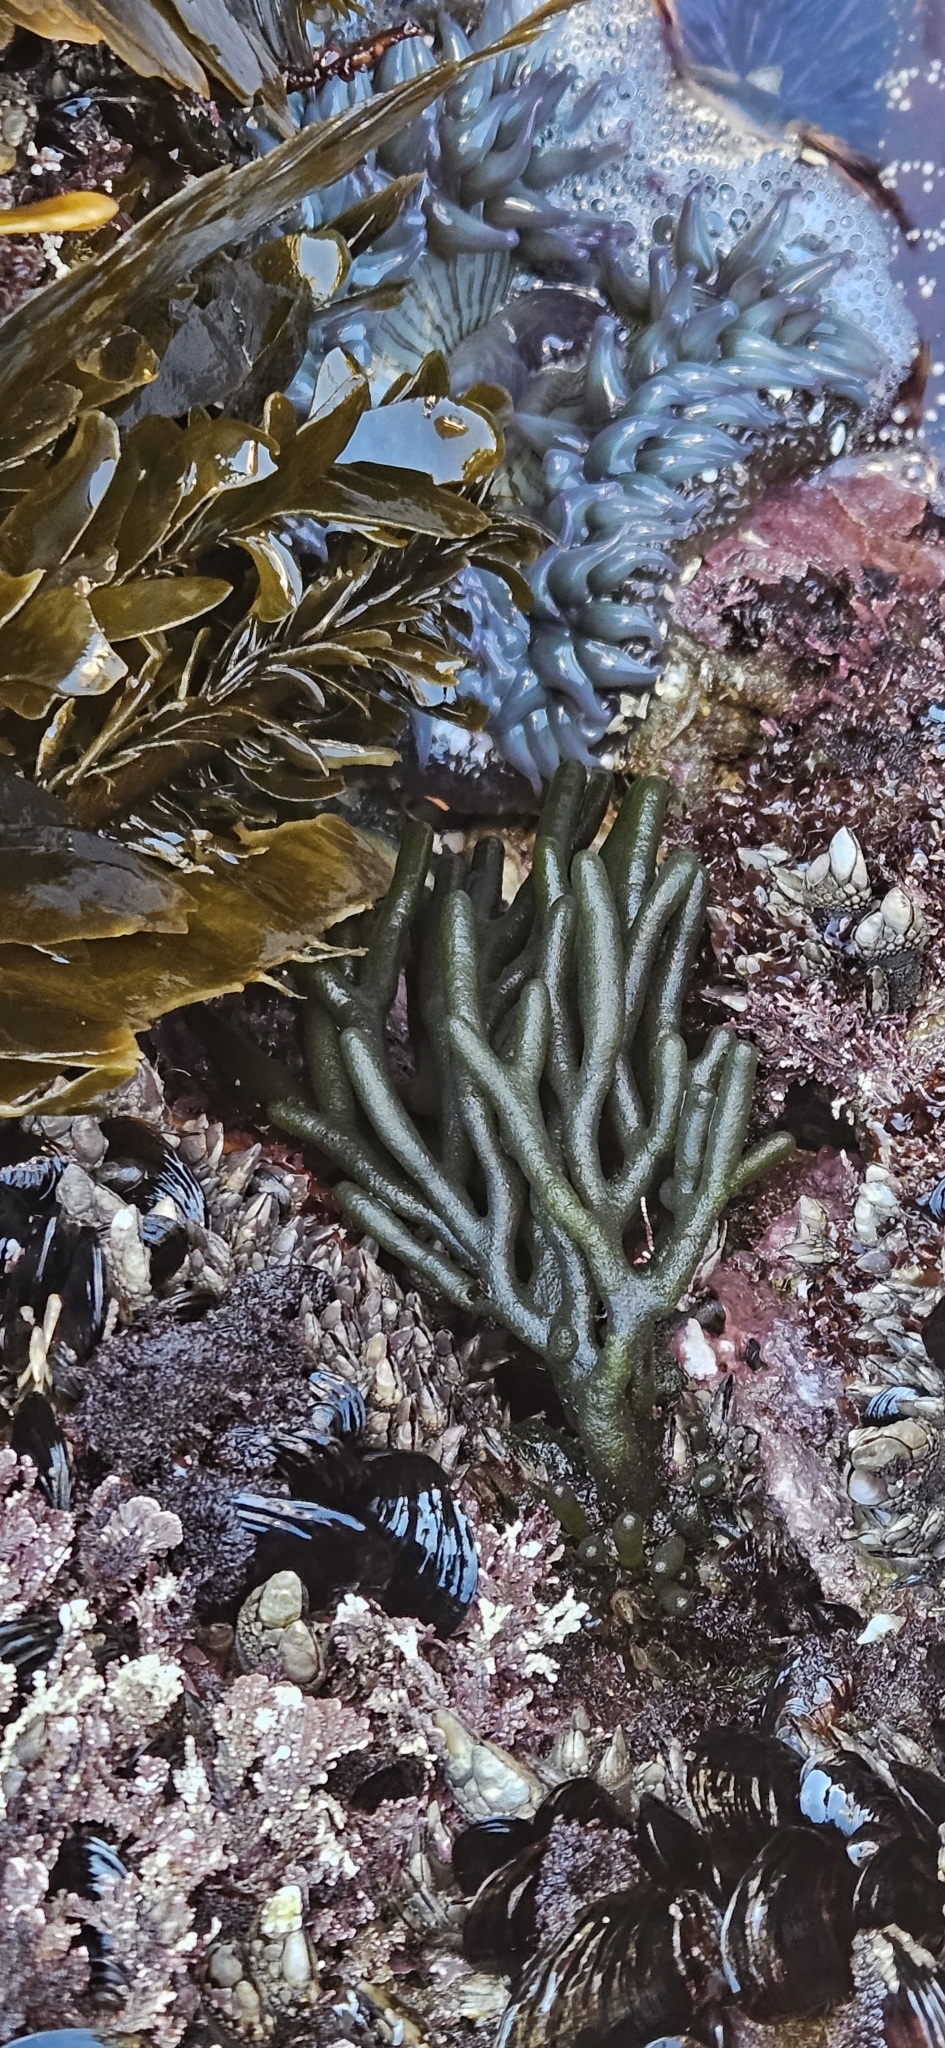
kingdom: Plantae
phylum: Chlorophyta
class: Ulvophyceae
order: Bryopsidales
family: Codiaceae
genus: Codium
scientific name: Codium fragile
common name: Dead man's fingers
